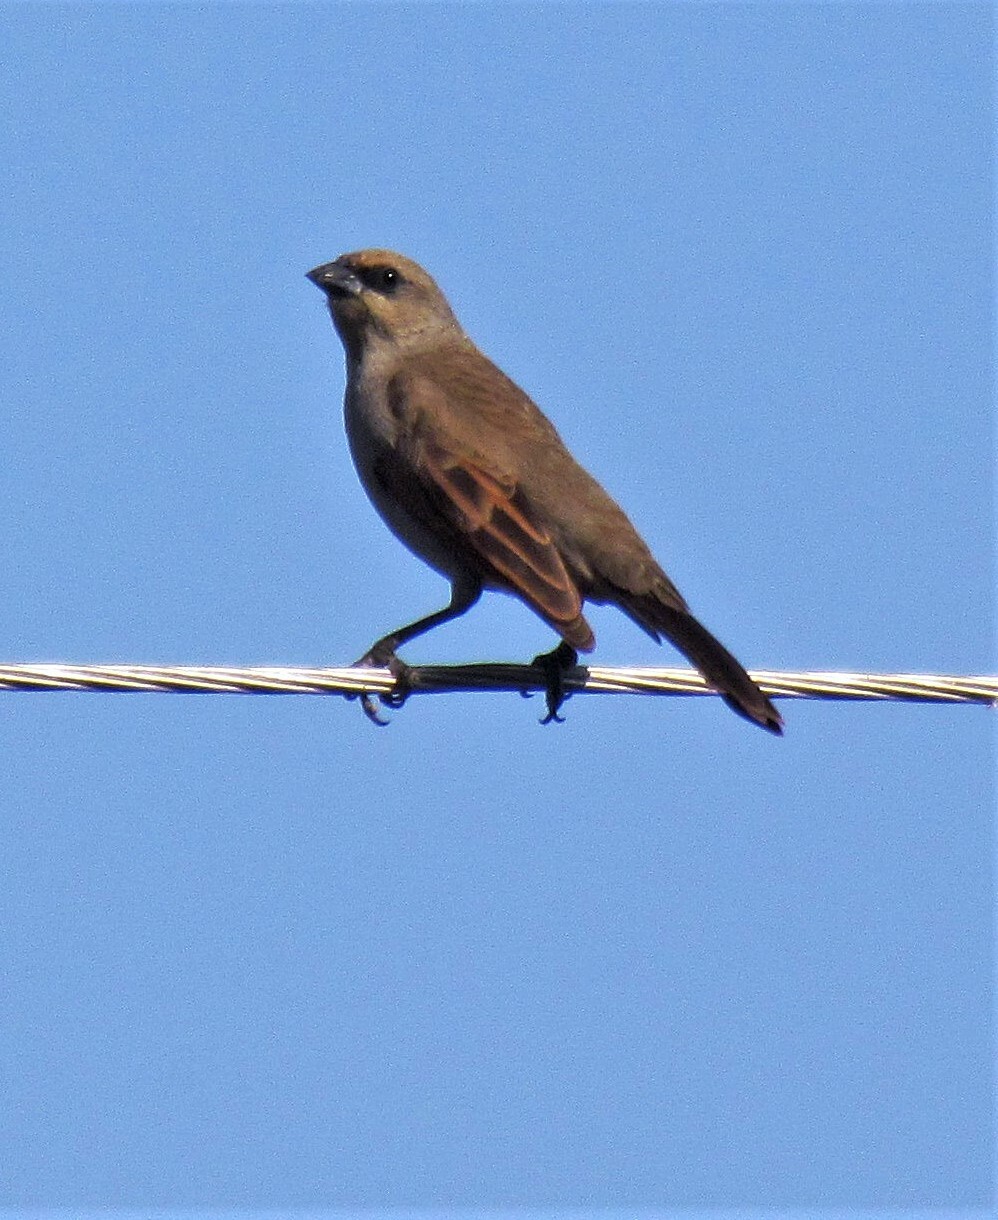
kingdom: Animalia
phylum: Chordata
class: Aves
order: Passeriformes
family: Icteridae
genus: Agelaioides
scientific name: Agelaioides badius
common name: Baywing
